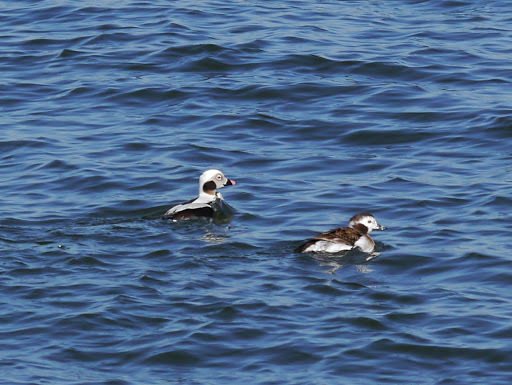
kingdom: Animalia
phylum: Chordata
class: Aves
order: Anseriformes
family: Anatidae
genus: Clangula
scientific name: Clangula hyemalis
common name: Long-tailed duck
